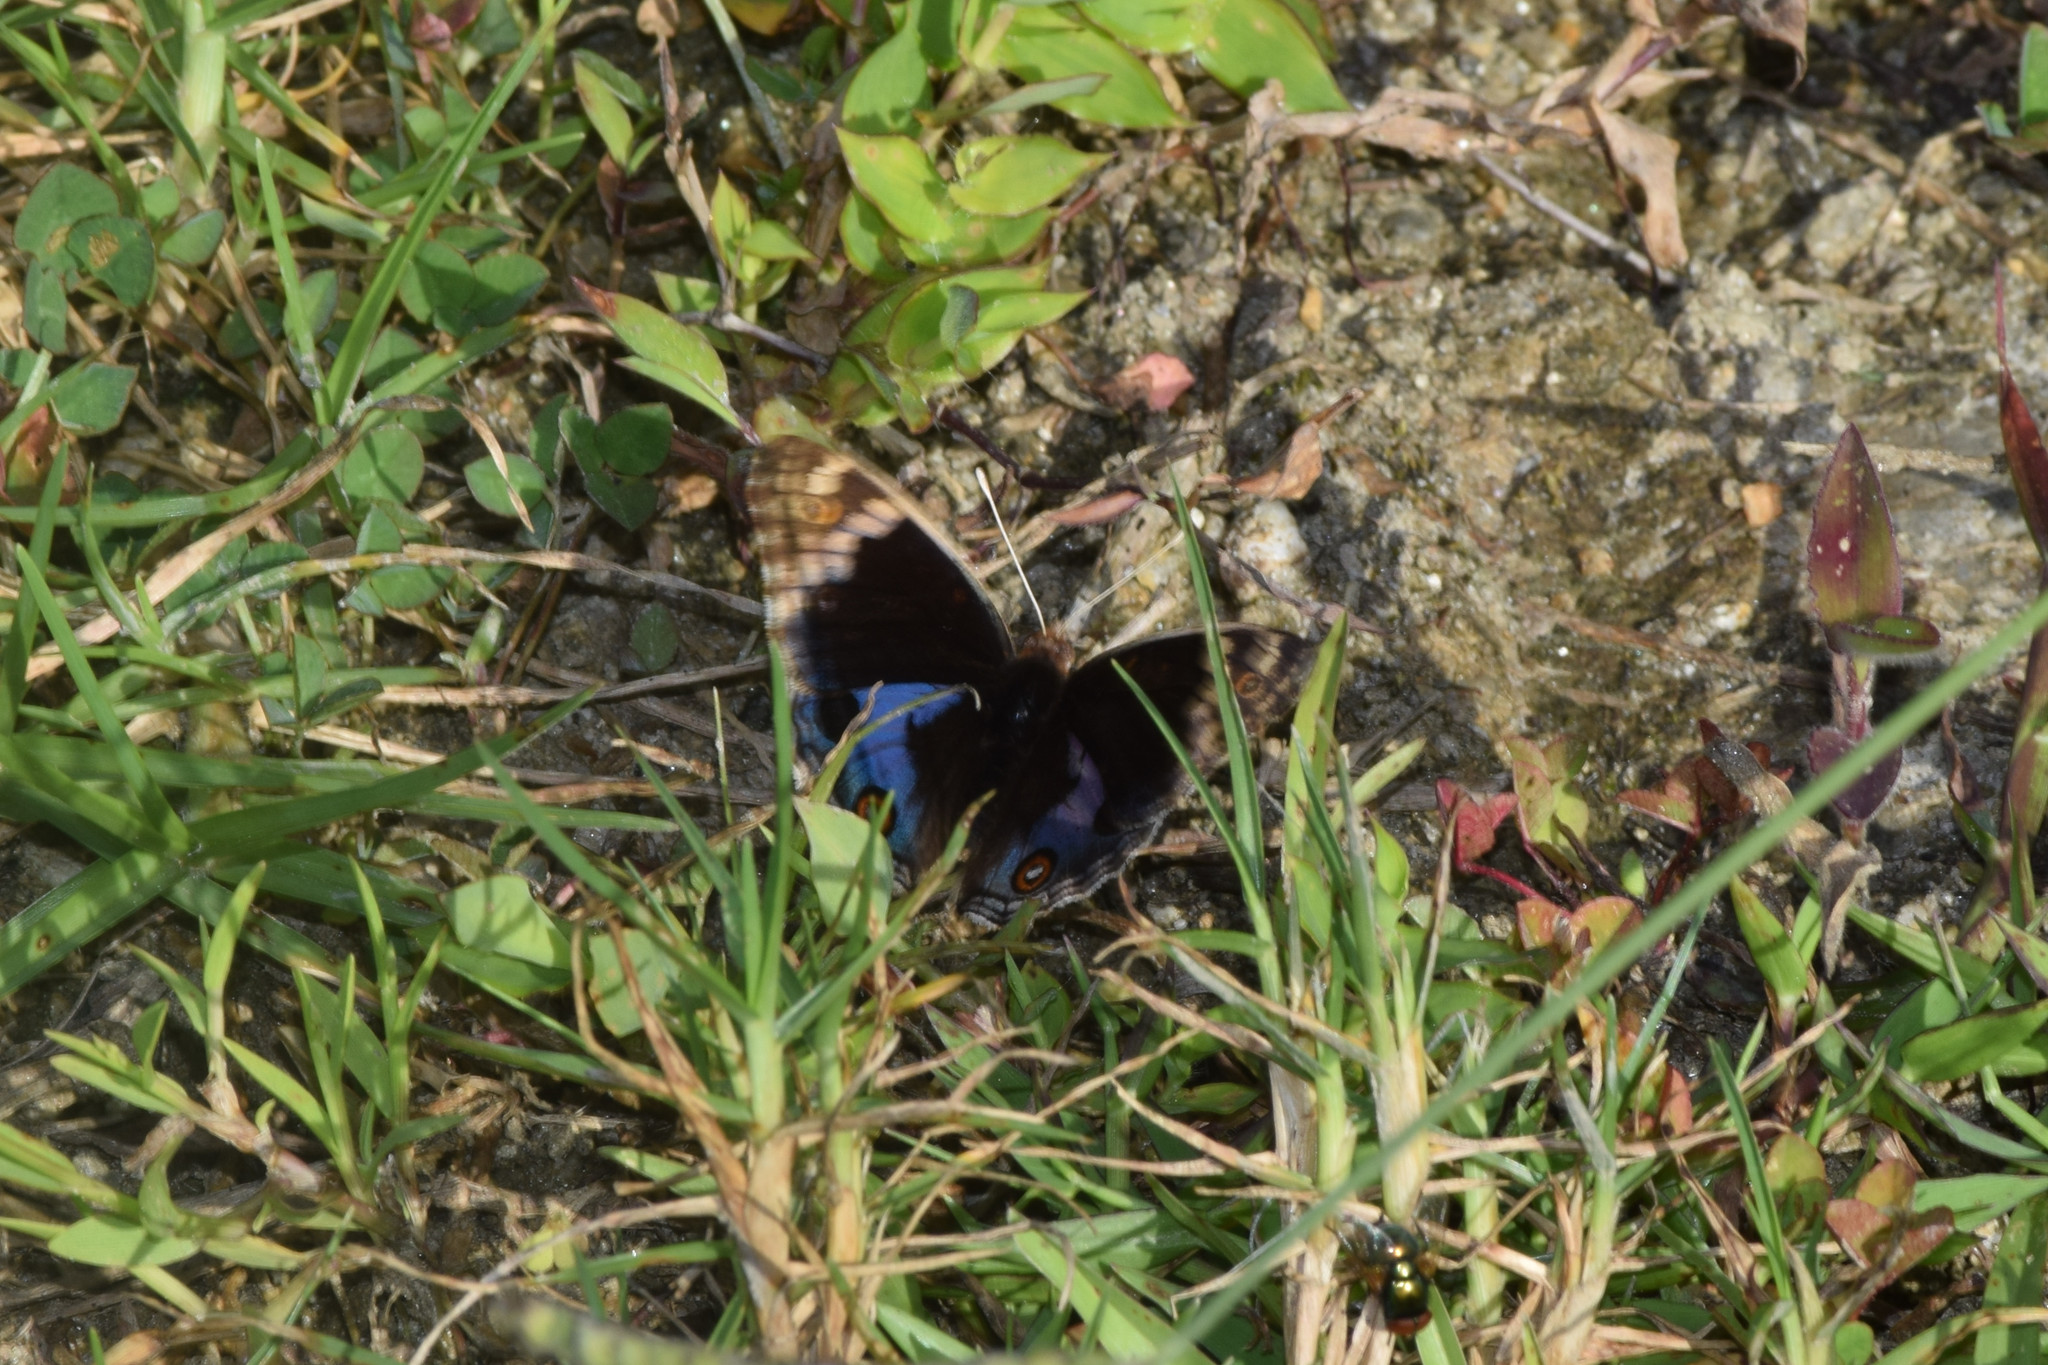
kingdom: Animalia
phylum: Arthropoda
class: Insecta
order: Lepidoptera
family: Nymphalidae
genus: Junonia
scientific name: Junonia orithya
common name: Blue pansy
